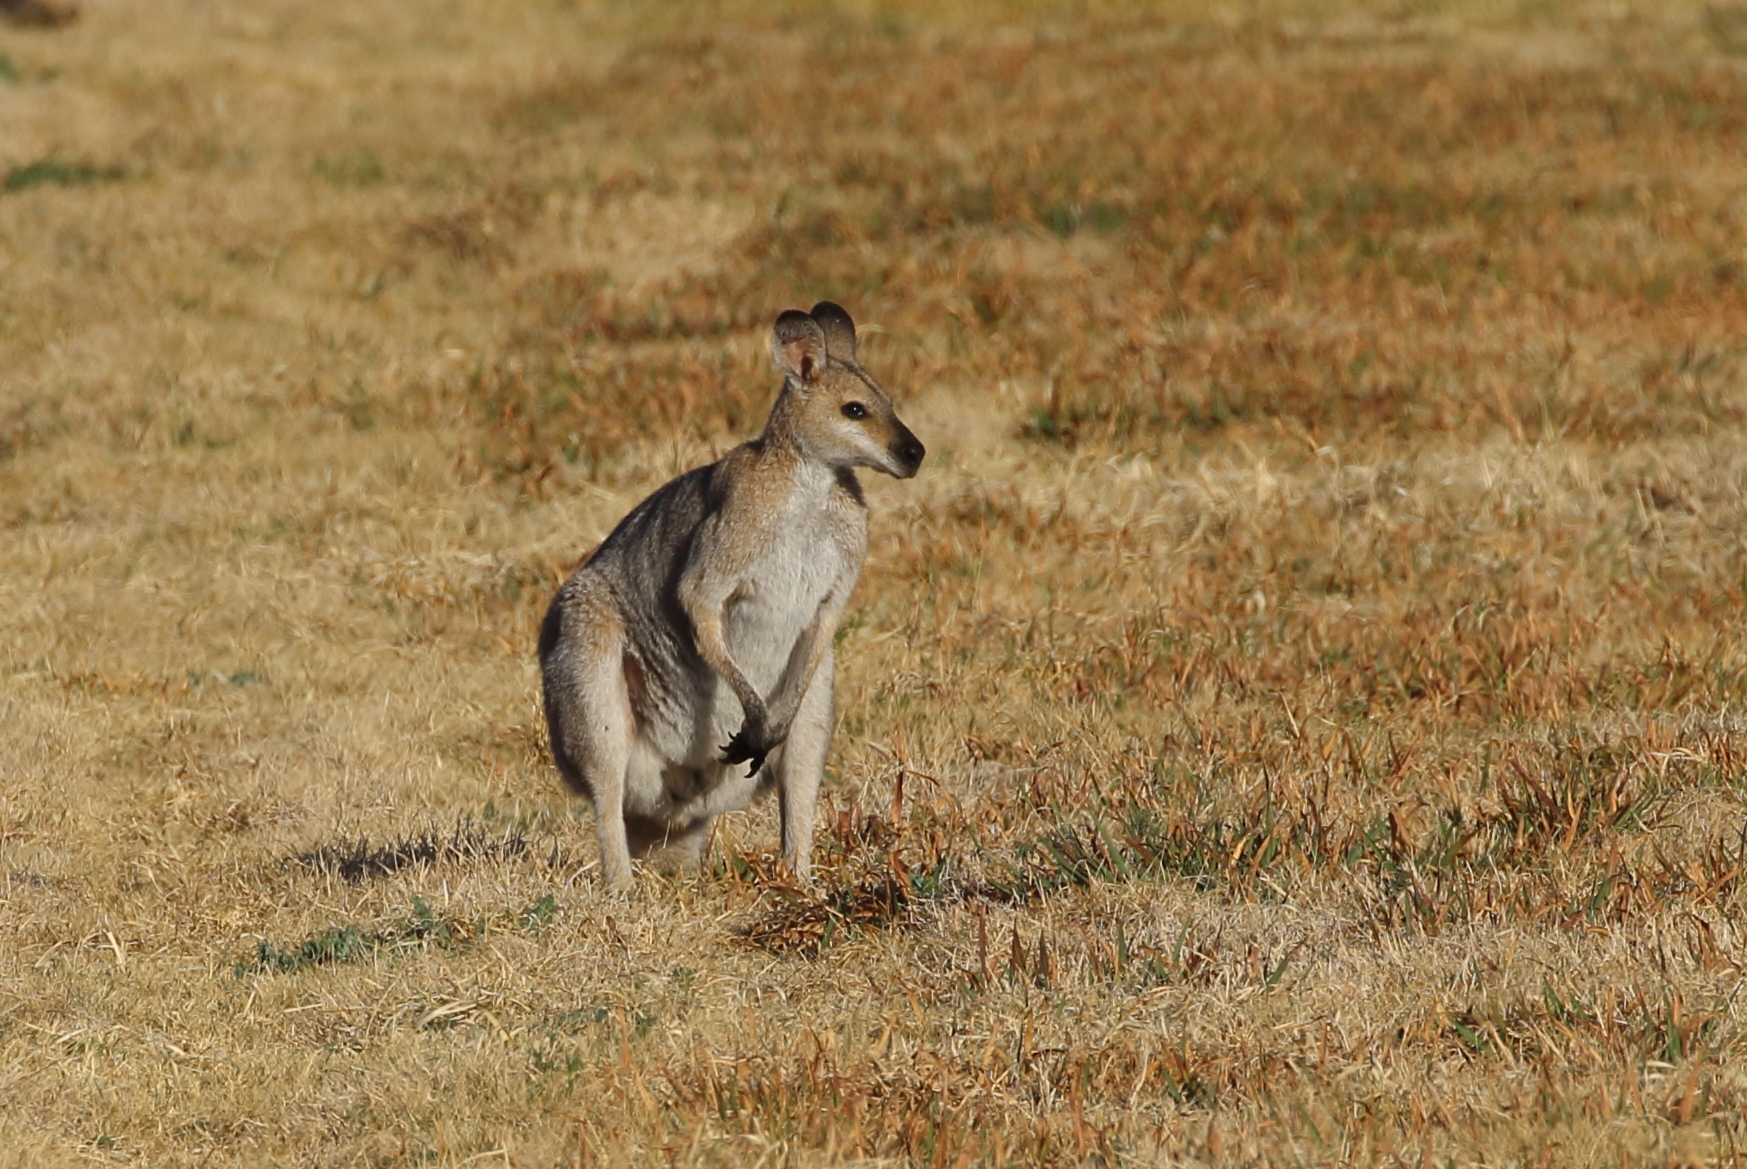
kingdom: Animalia
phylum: Chordata
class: Mammalia
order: Diprotodontia
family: Macropodidae
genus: Notamacropus
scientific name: Notamacropus rufogriseus
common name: Red-necked wallaby
